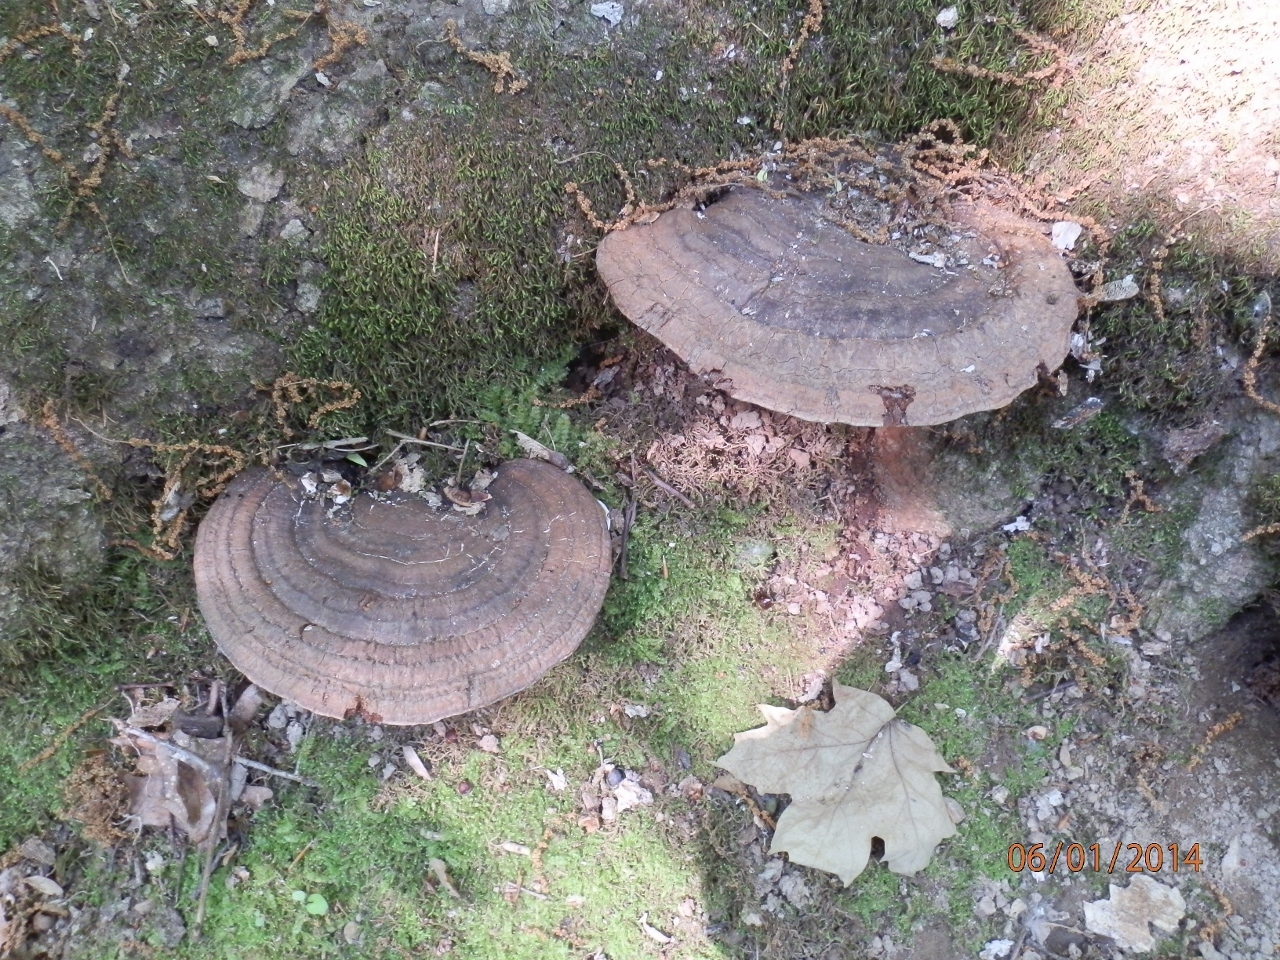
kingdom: Fungi
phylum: Basidiomycota
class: Agaricomycetes
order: Polyporales
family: Polyporaceae
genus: Ganoderma
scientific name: Ganoderma applanatum
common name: Artist's bracket
